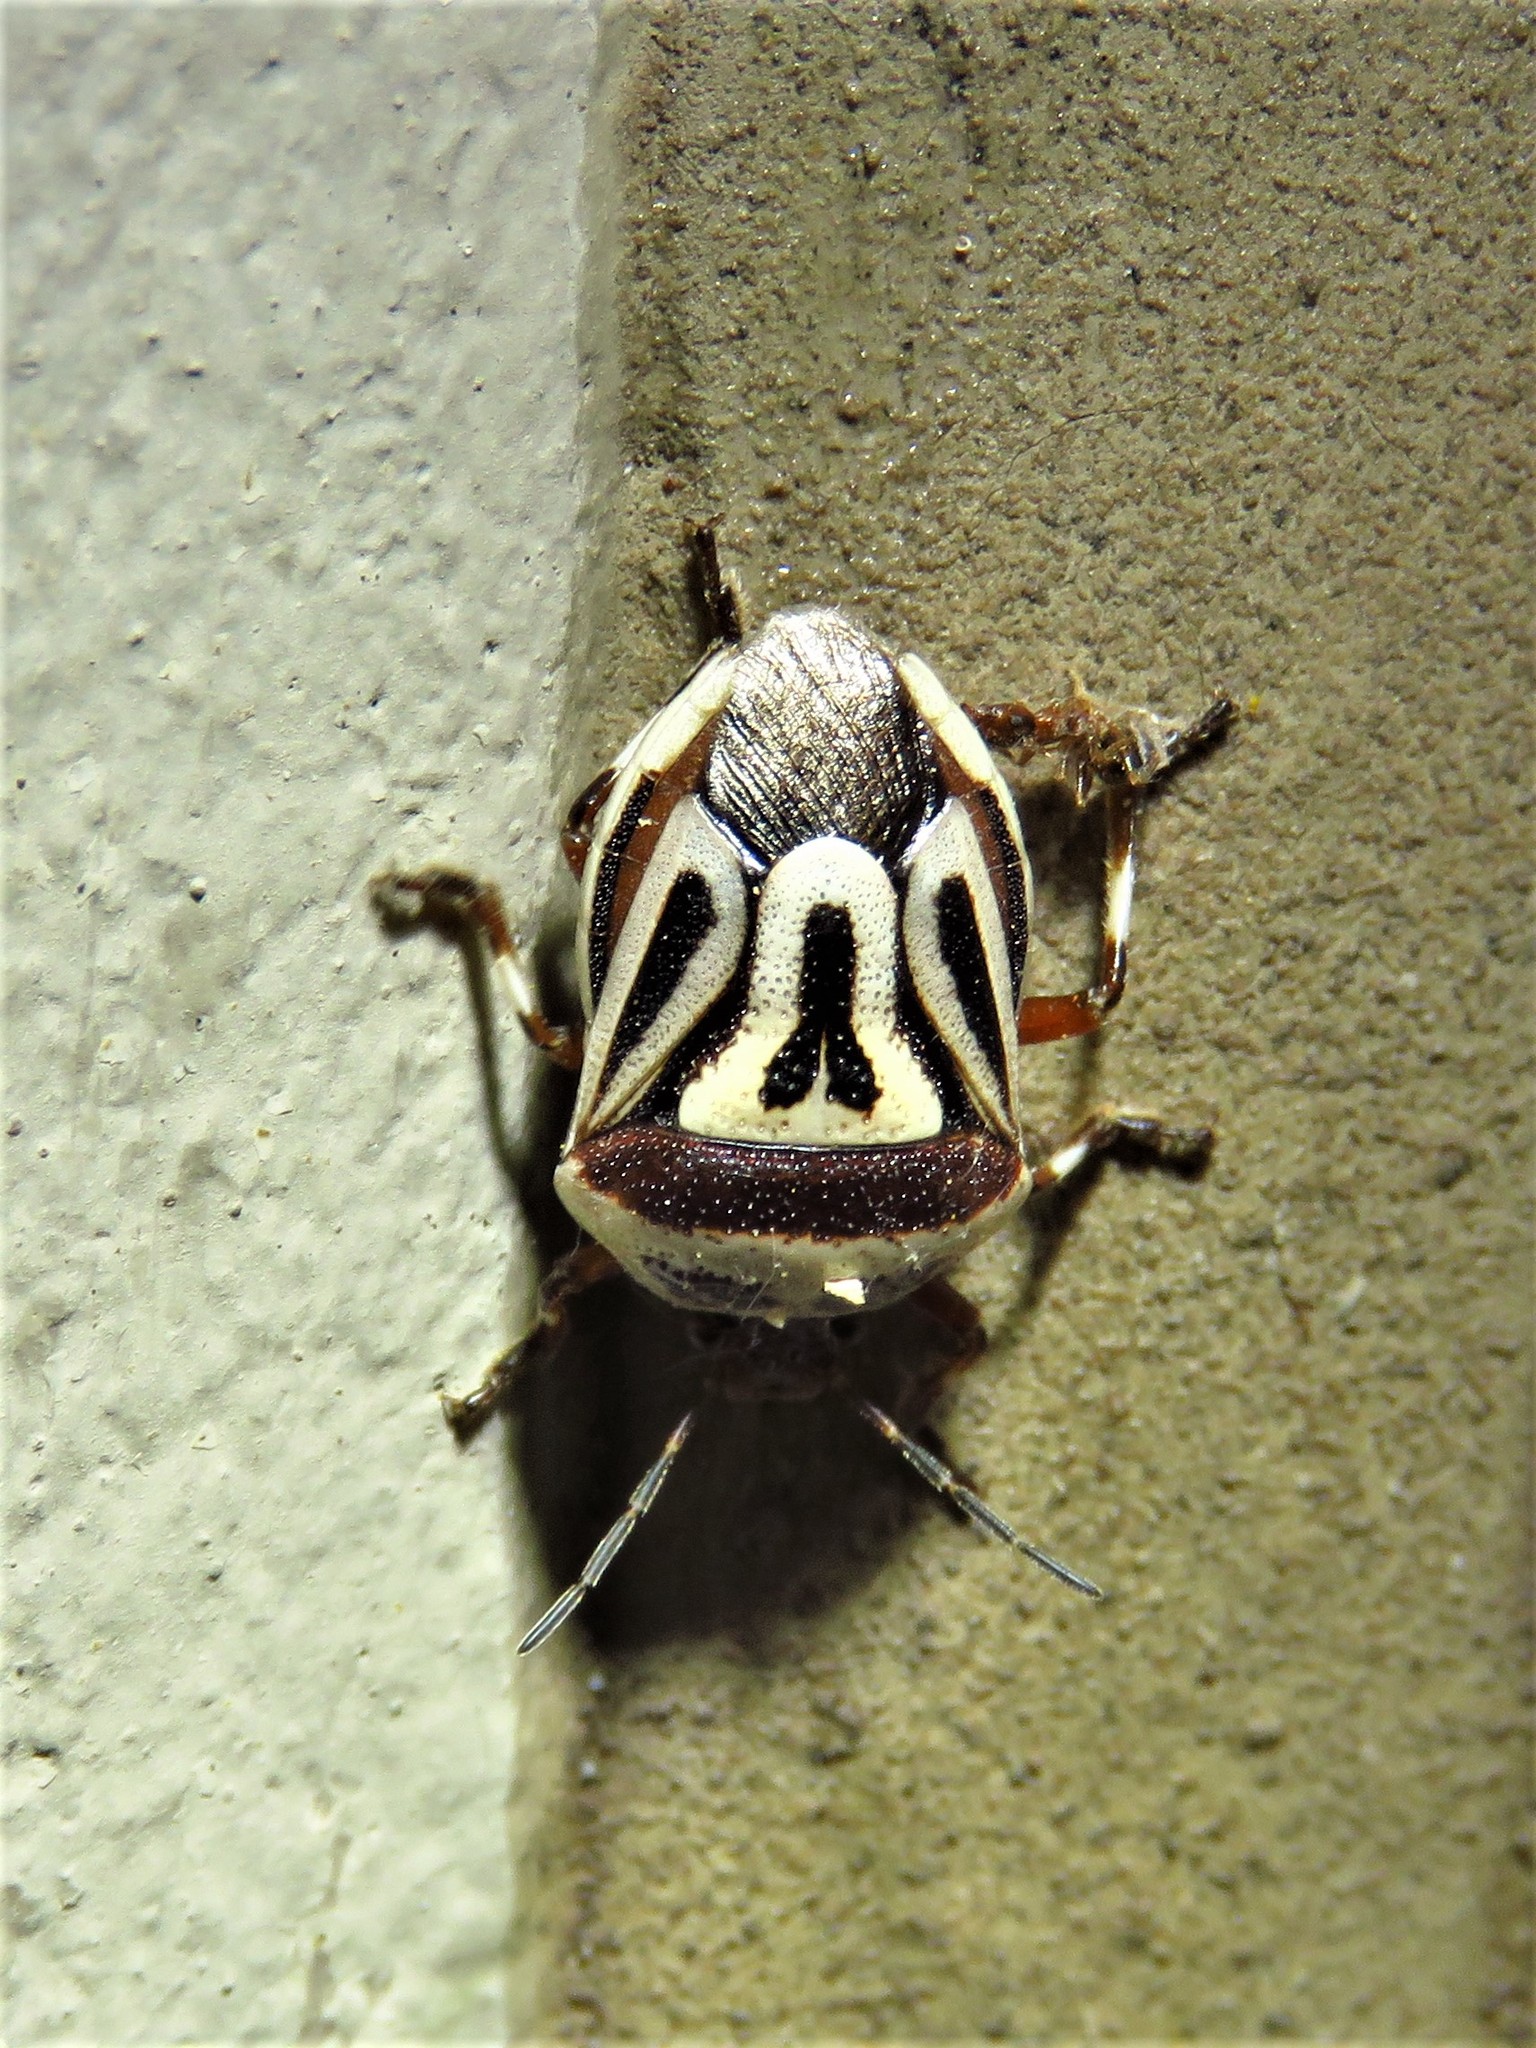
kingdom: Animalia
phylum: Arthropoda
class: Insecta
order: Hemiptera
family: Pentatomidae
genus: Perillus
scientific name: Perillus bioculatus
